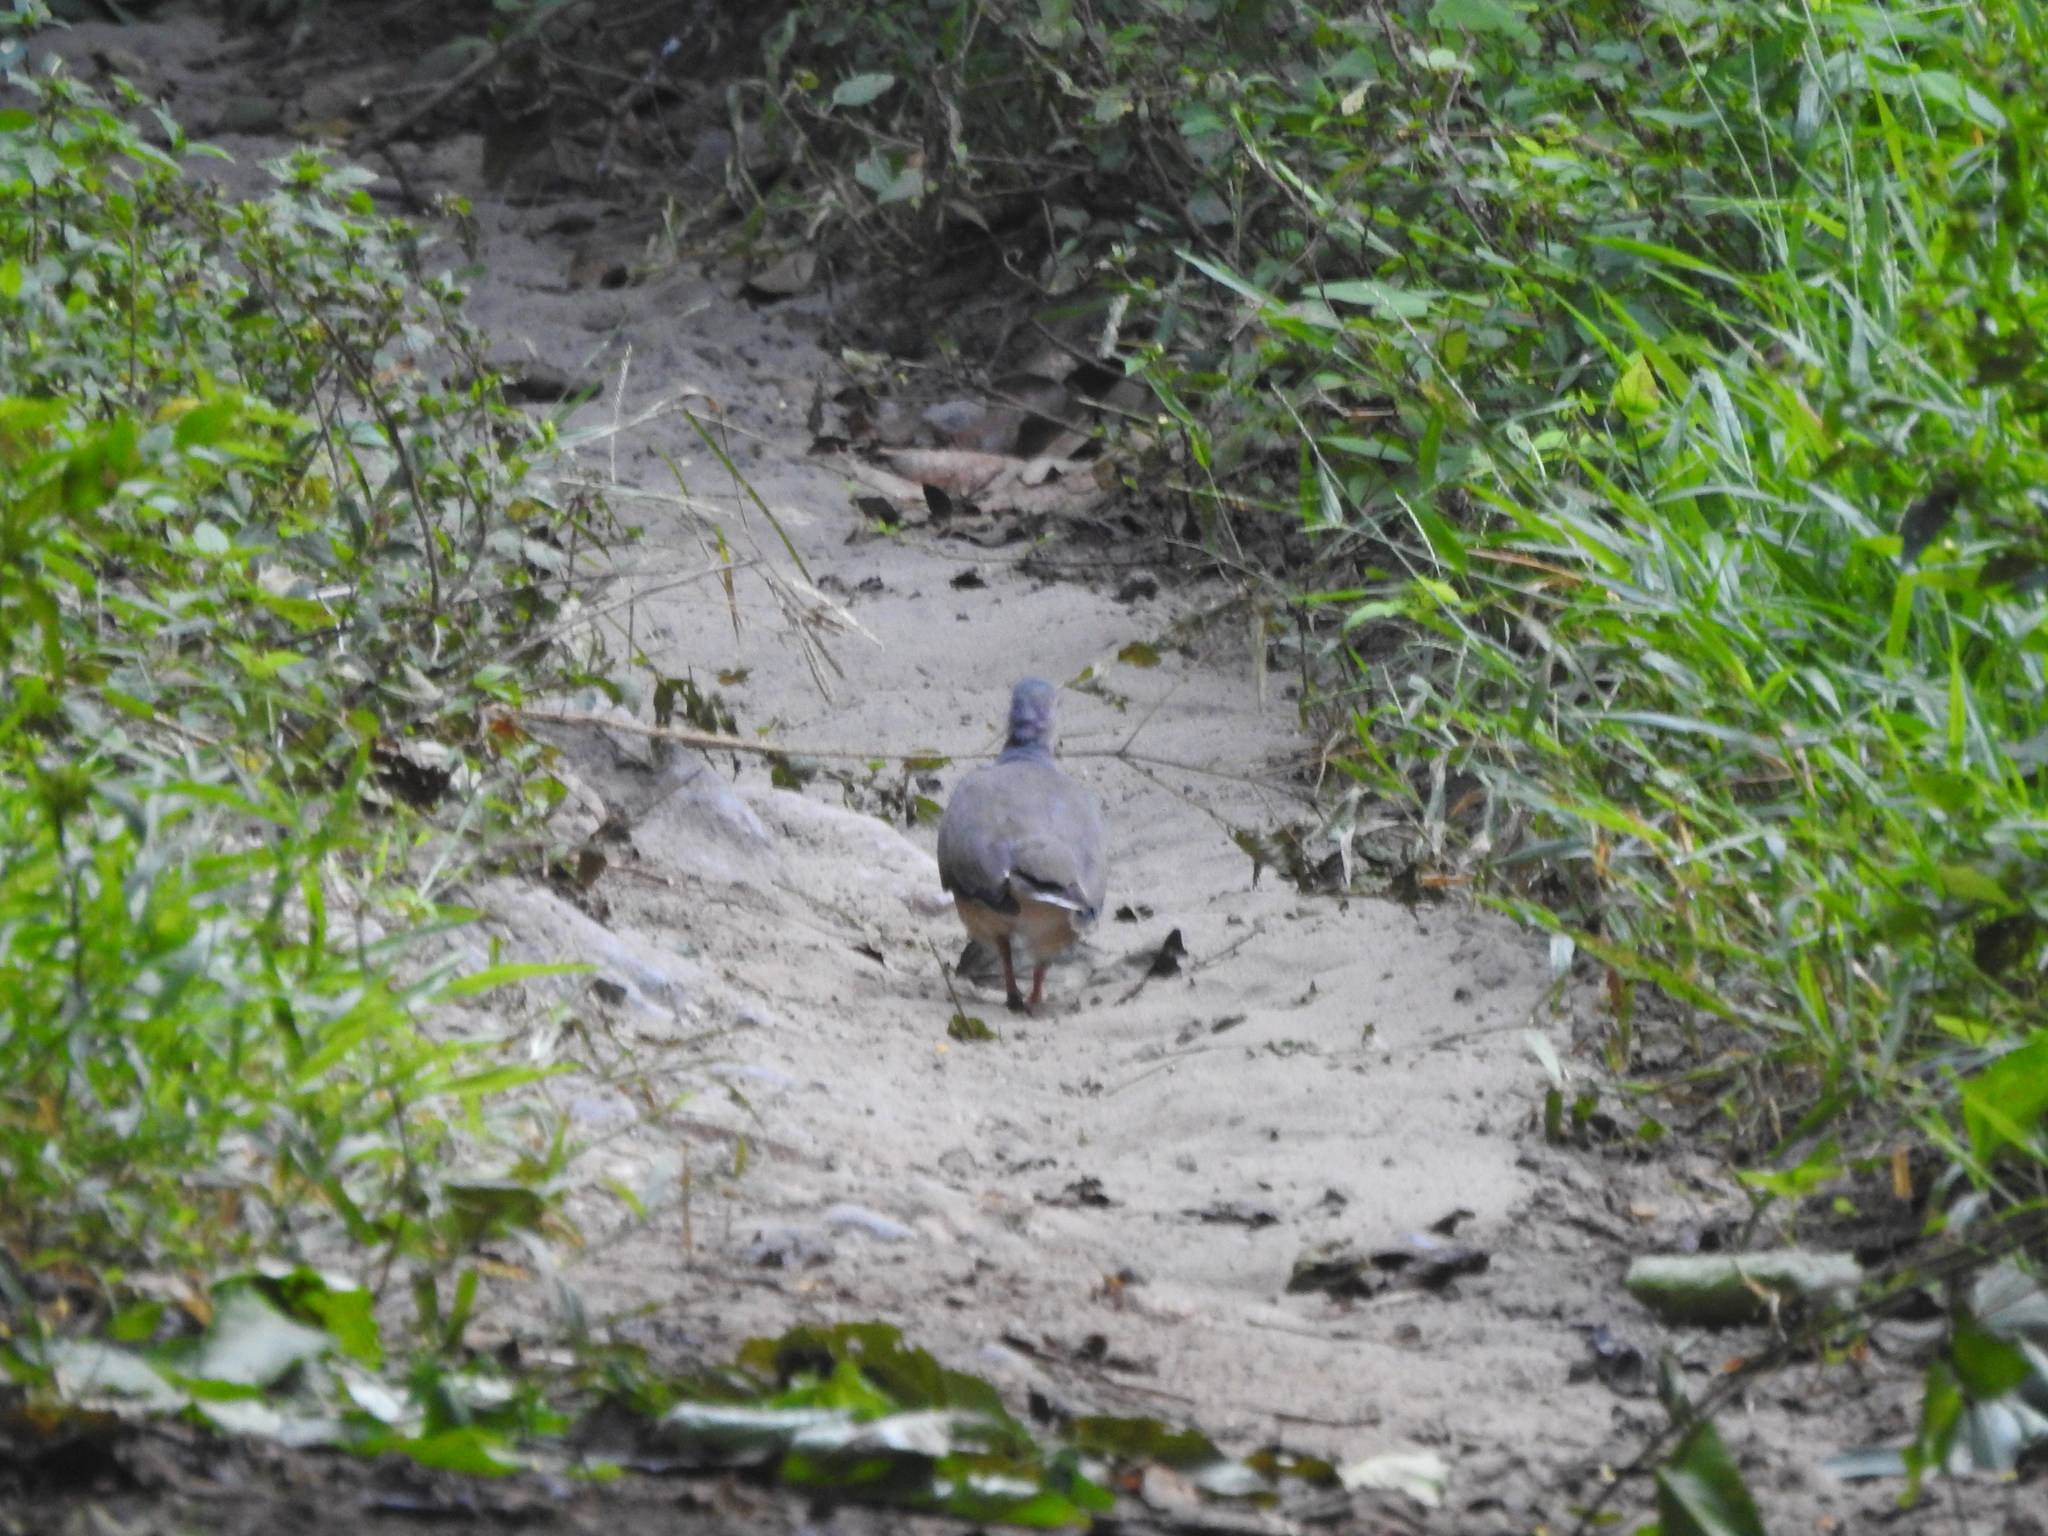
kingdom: Animalia
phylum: Chordata
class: Aves
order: Columbiformes
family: Columbidae
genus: Leptotila
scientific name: Leptotila verreauxi
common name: White-tipped dove
